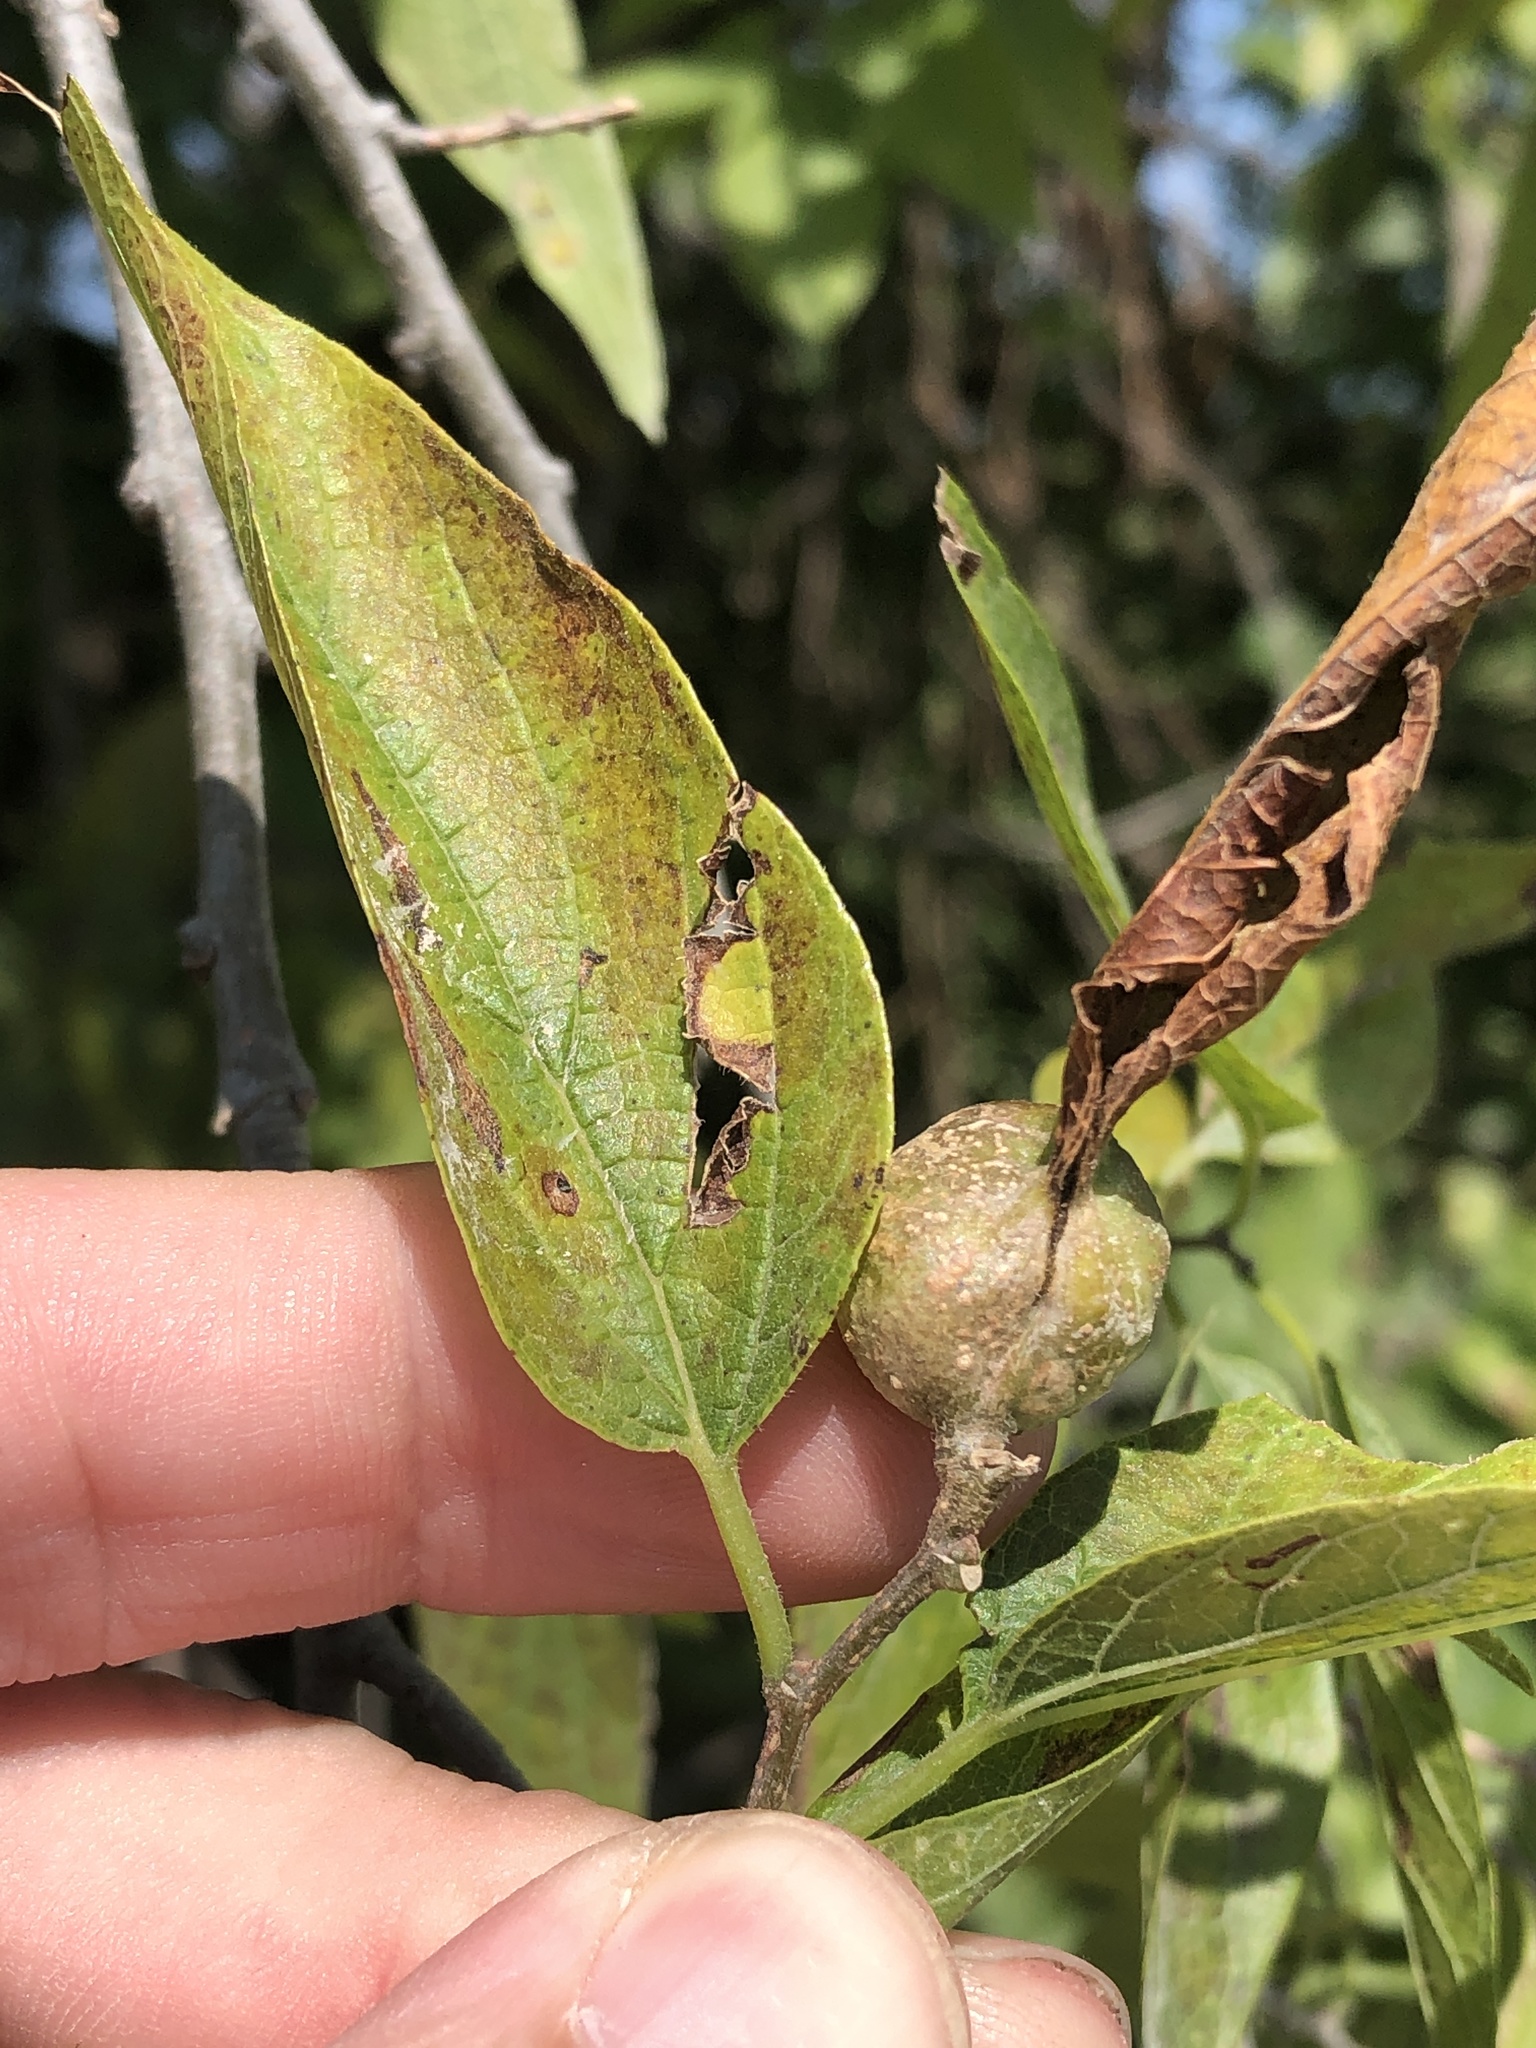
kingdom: Animalia
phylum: Arthropoda
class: Insecta
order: Hemiptera
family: Aphalaridae
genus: Pachypsylla
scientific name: Pachypsylla venusta
